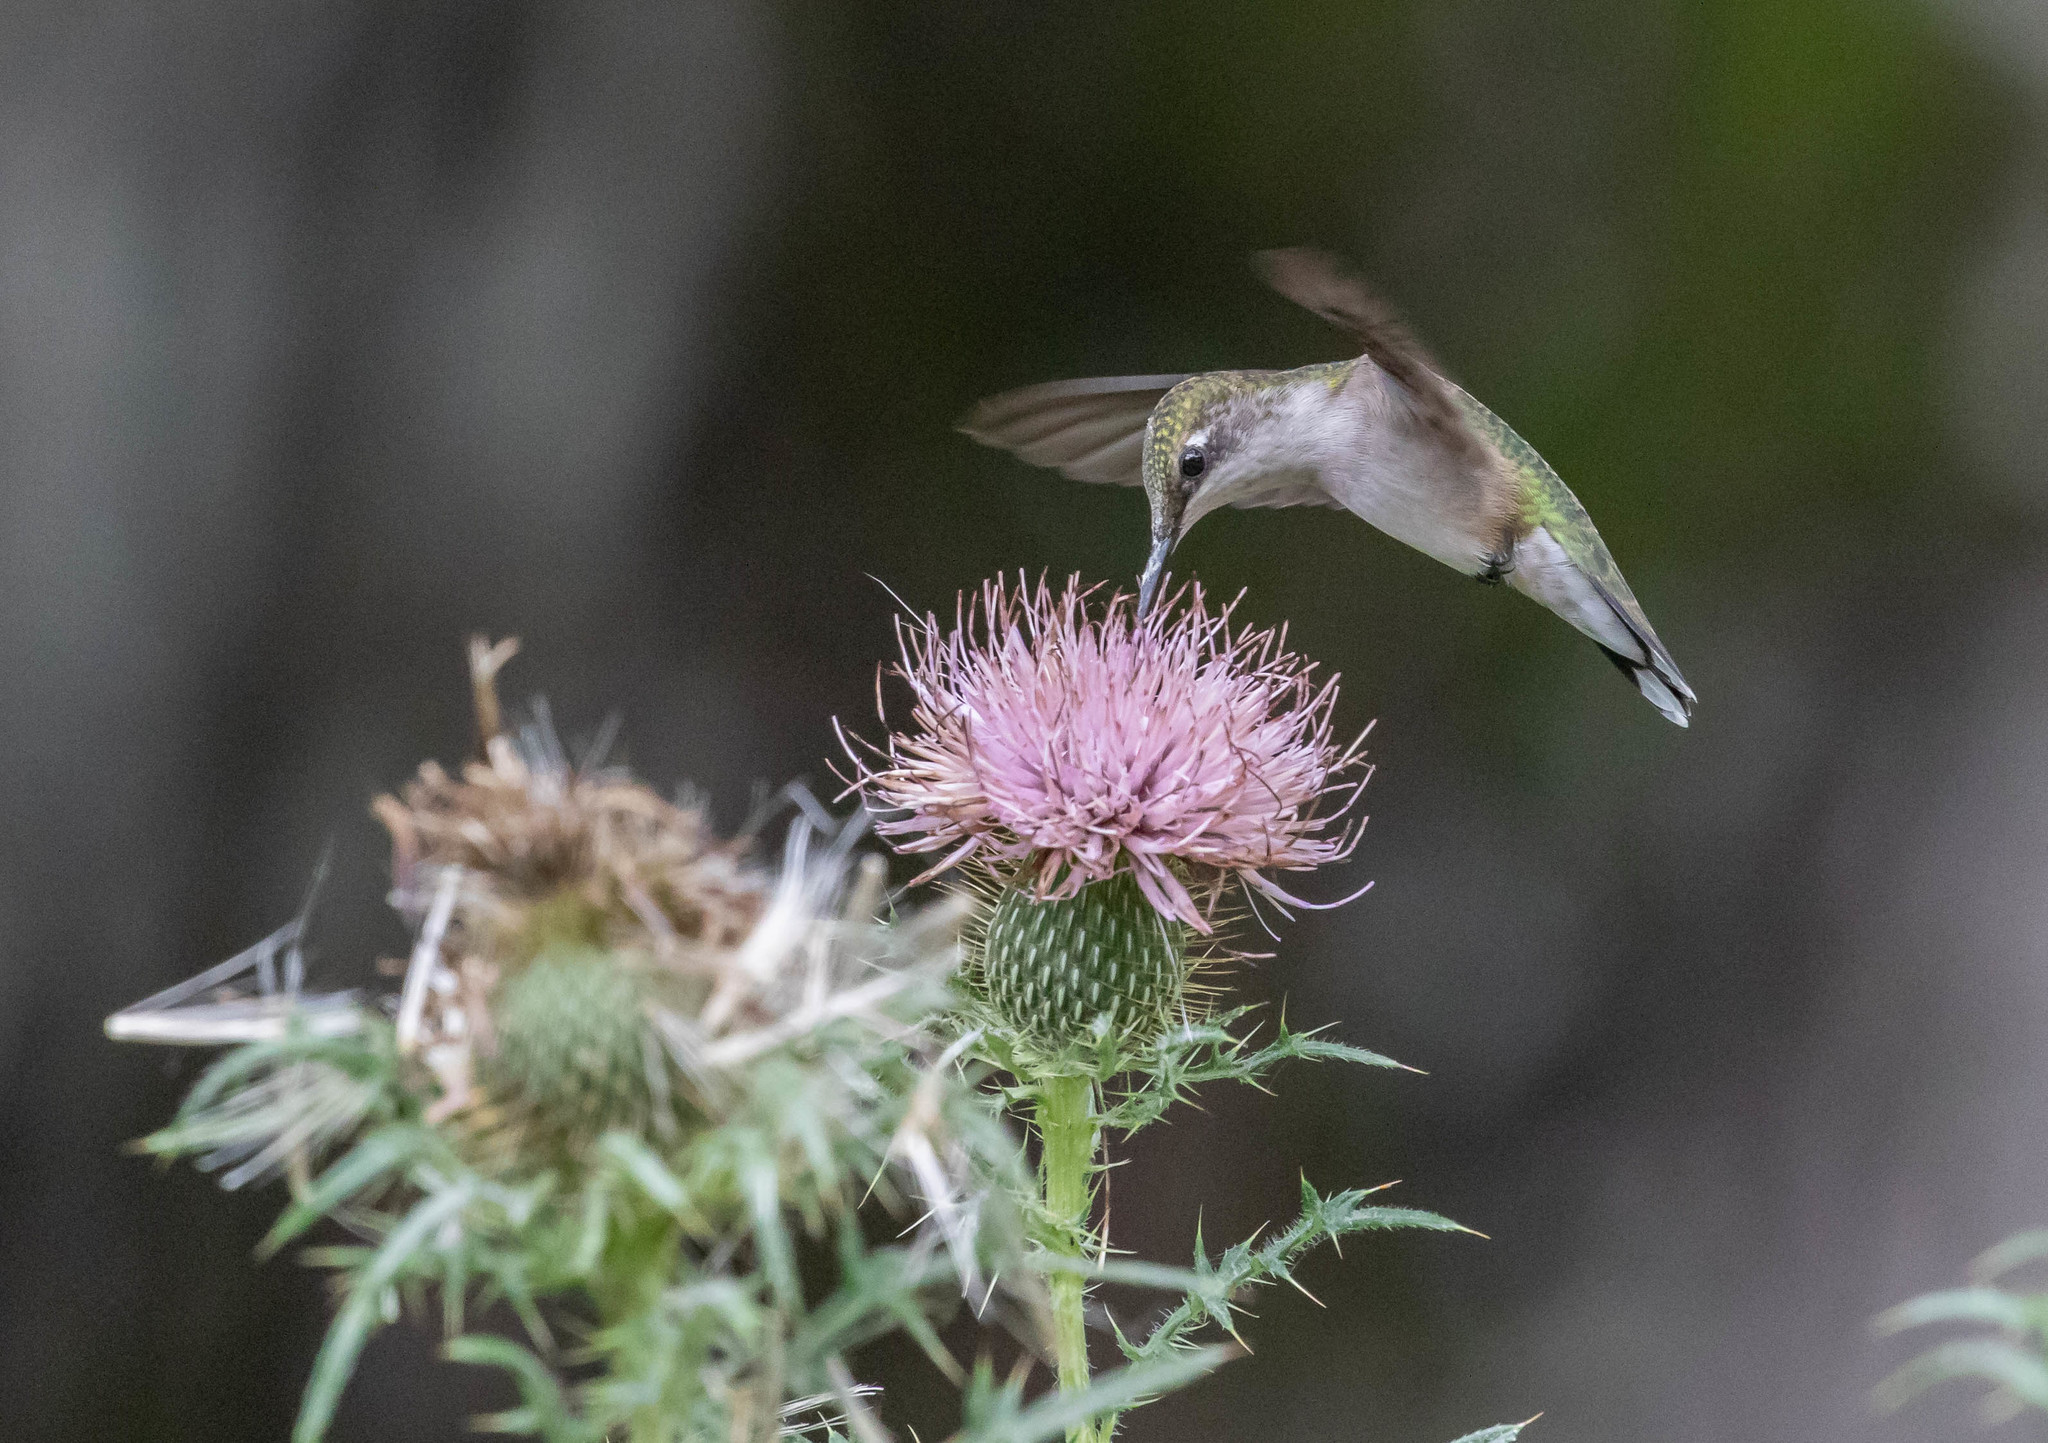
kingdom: Animalia
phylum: Chordata
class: Aves
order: Apodiformes
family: Trochilidae
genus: Archilochus
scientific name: Archilochus colubris
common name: Ruby-throated hummingbird
